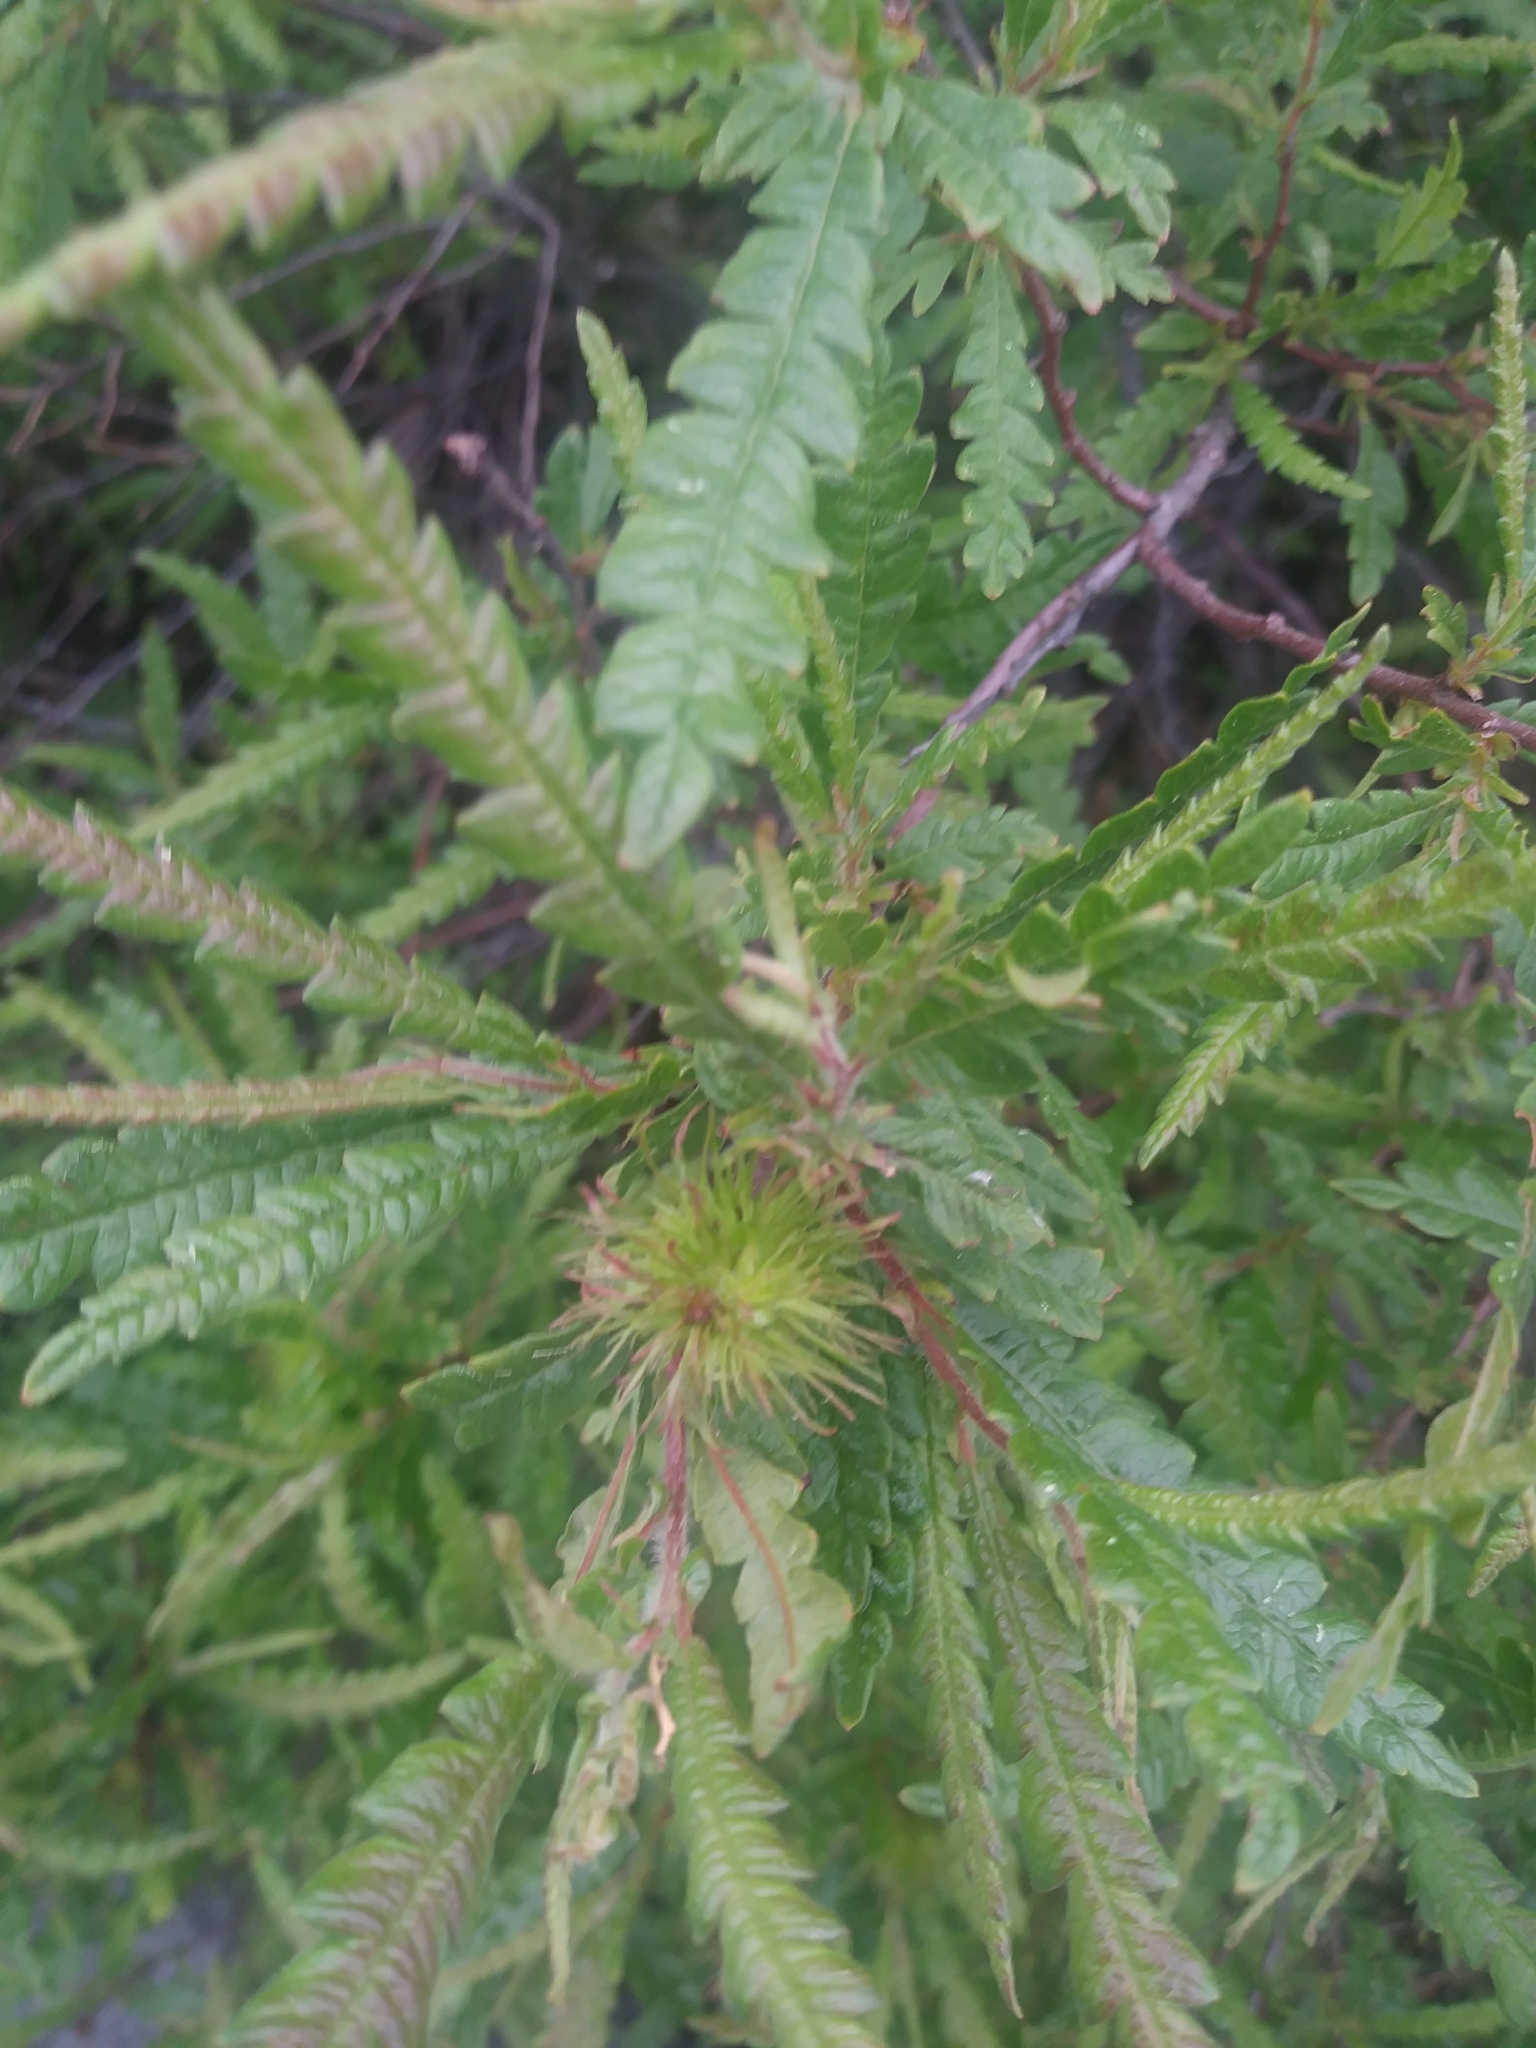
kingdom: Plantae
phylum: Tracheophyta
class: Magnoliopsida
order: Fagales
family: Myricaceae
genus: Comptonia
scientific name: Comptonia peregrina
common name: Sweet-fern
